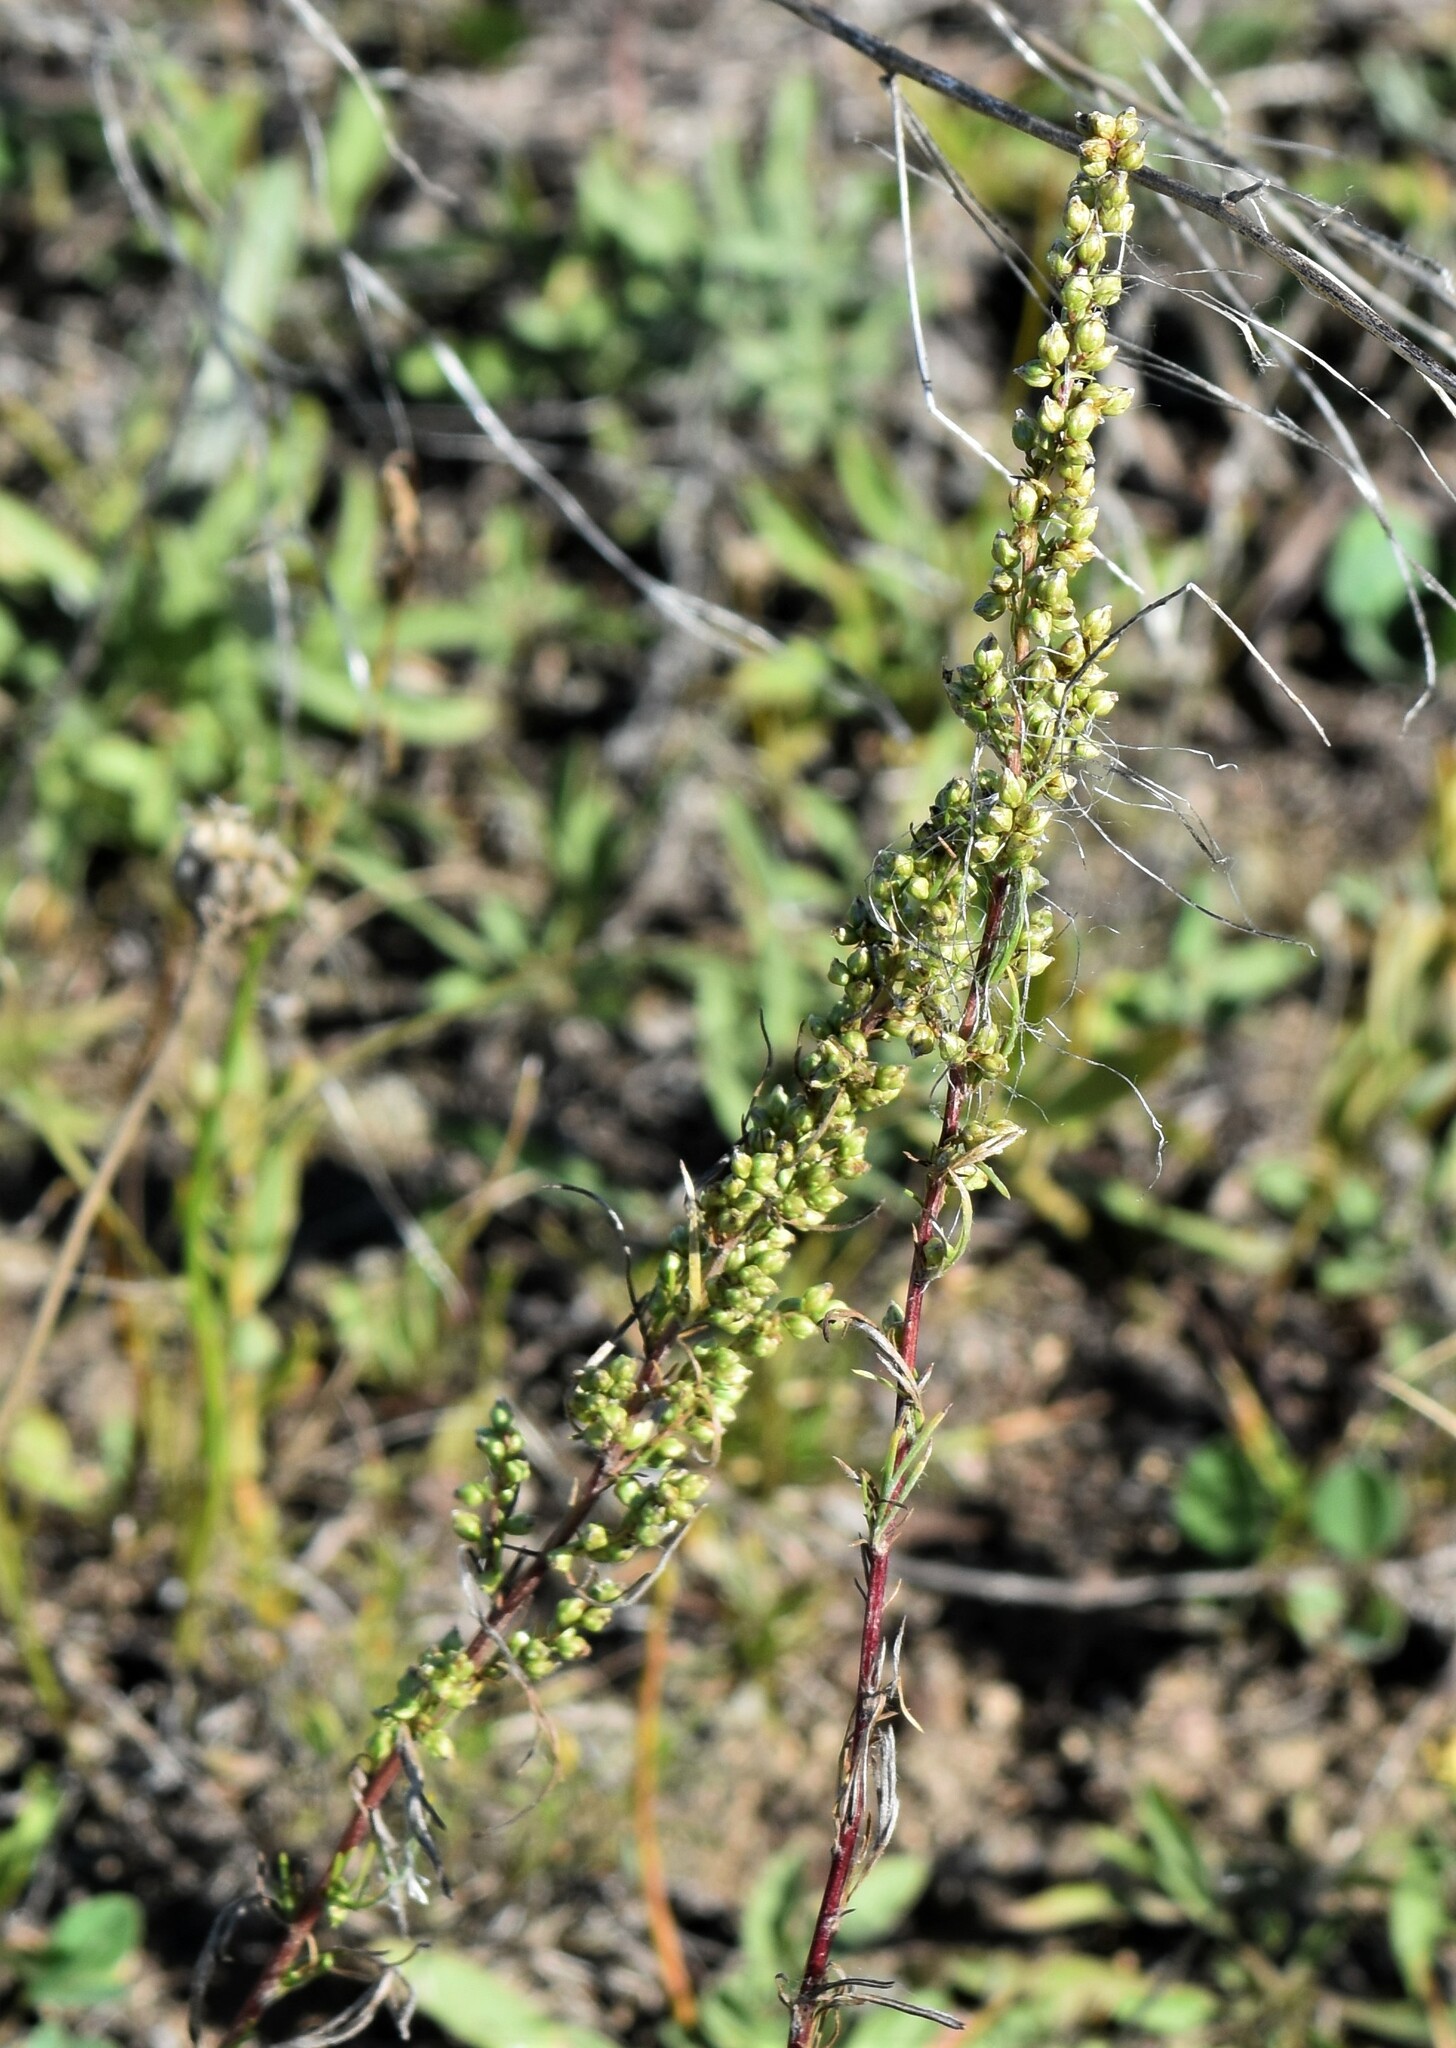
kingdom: Plantae
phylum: Tracheophyta
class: Magnoliopsida
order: Asterales
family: Asteraceae
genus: Artemisia
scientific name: Artemisia campestris
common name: Field wormwood
